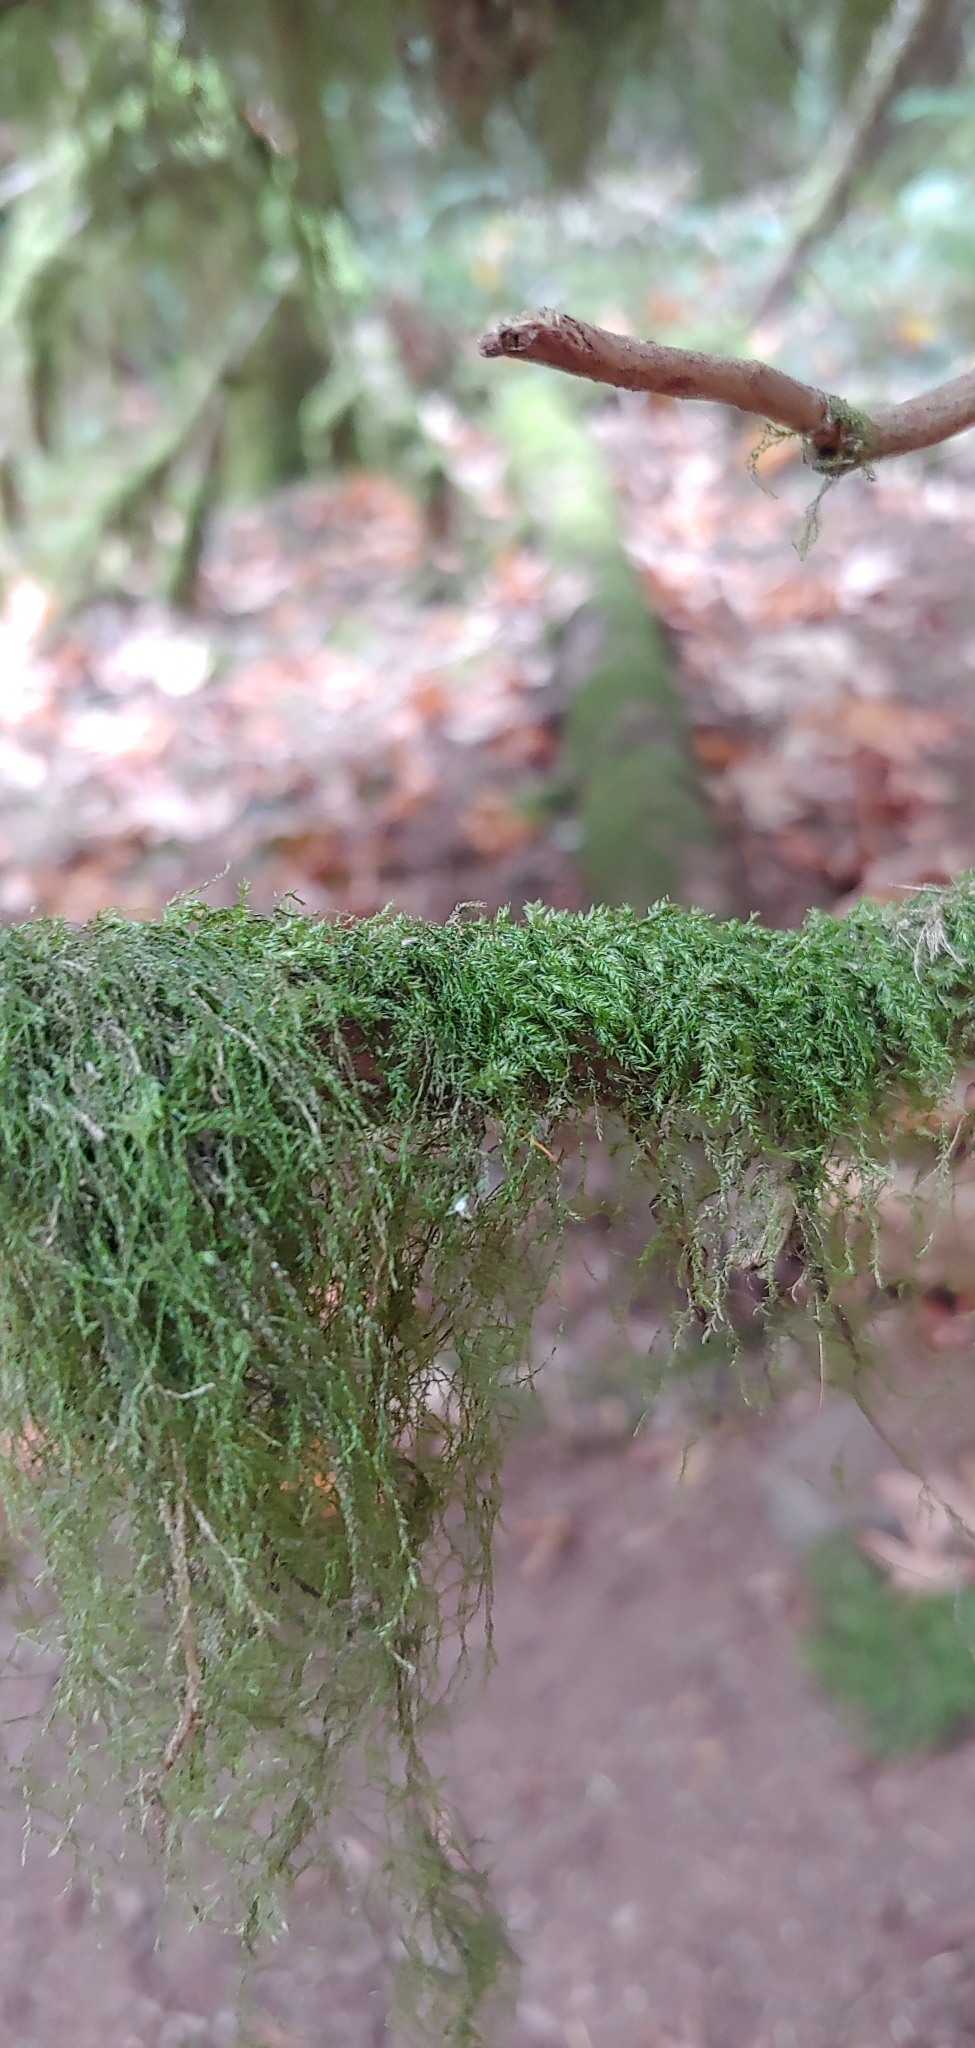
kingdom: Plantae
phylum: Bryophyta
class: Bryopsida
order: Hypnales
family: Lembophyllaceae
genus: Pseudisothecium
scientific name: Pseudisothecium stoloniferum
